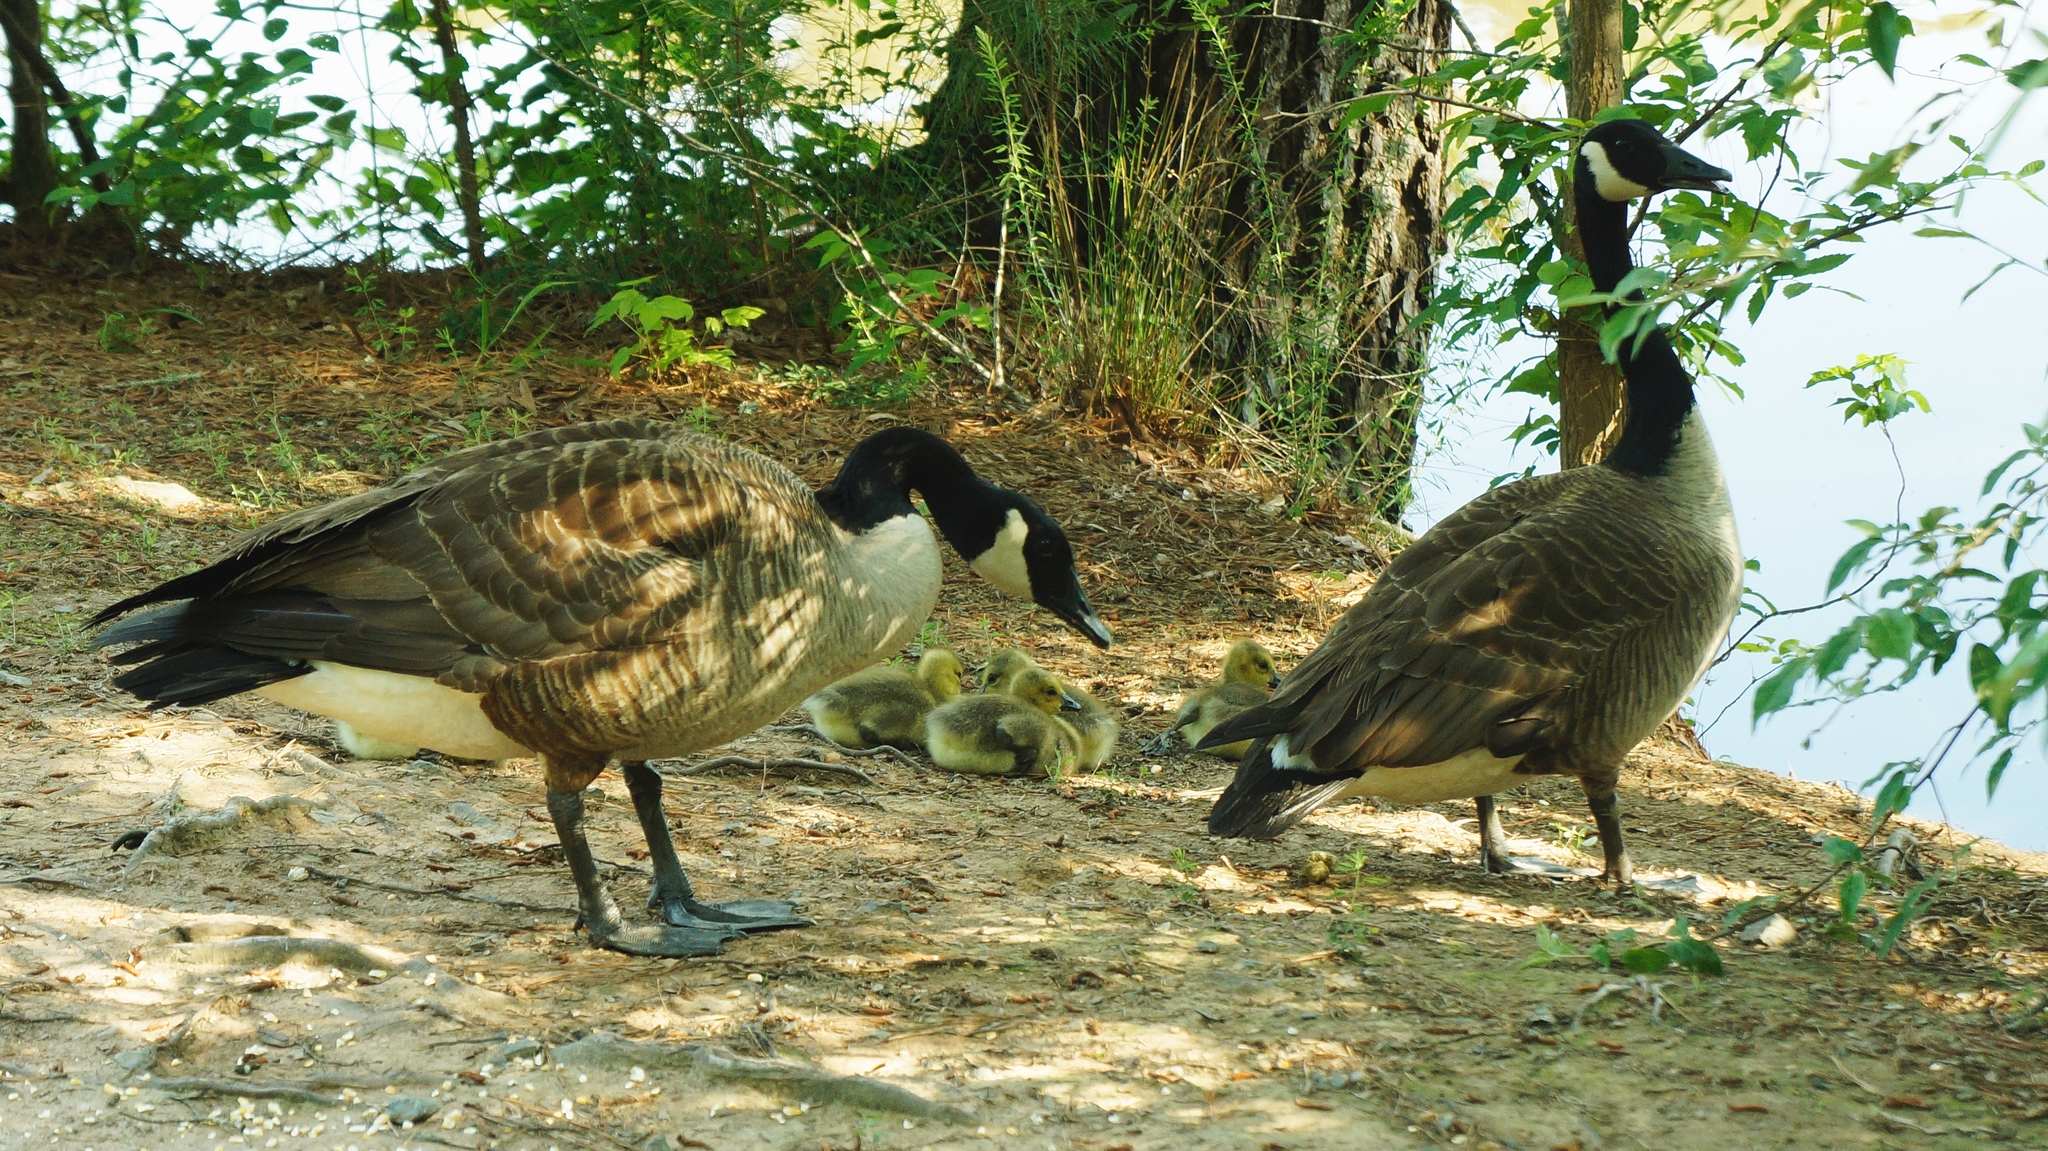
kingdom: Animalia
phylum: Chordata
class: Aves
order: Anseriformes
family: Anatidae
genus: Branta
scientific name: Branta canadensis
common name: Canada goose
